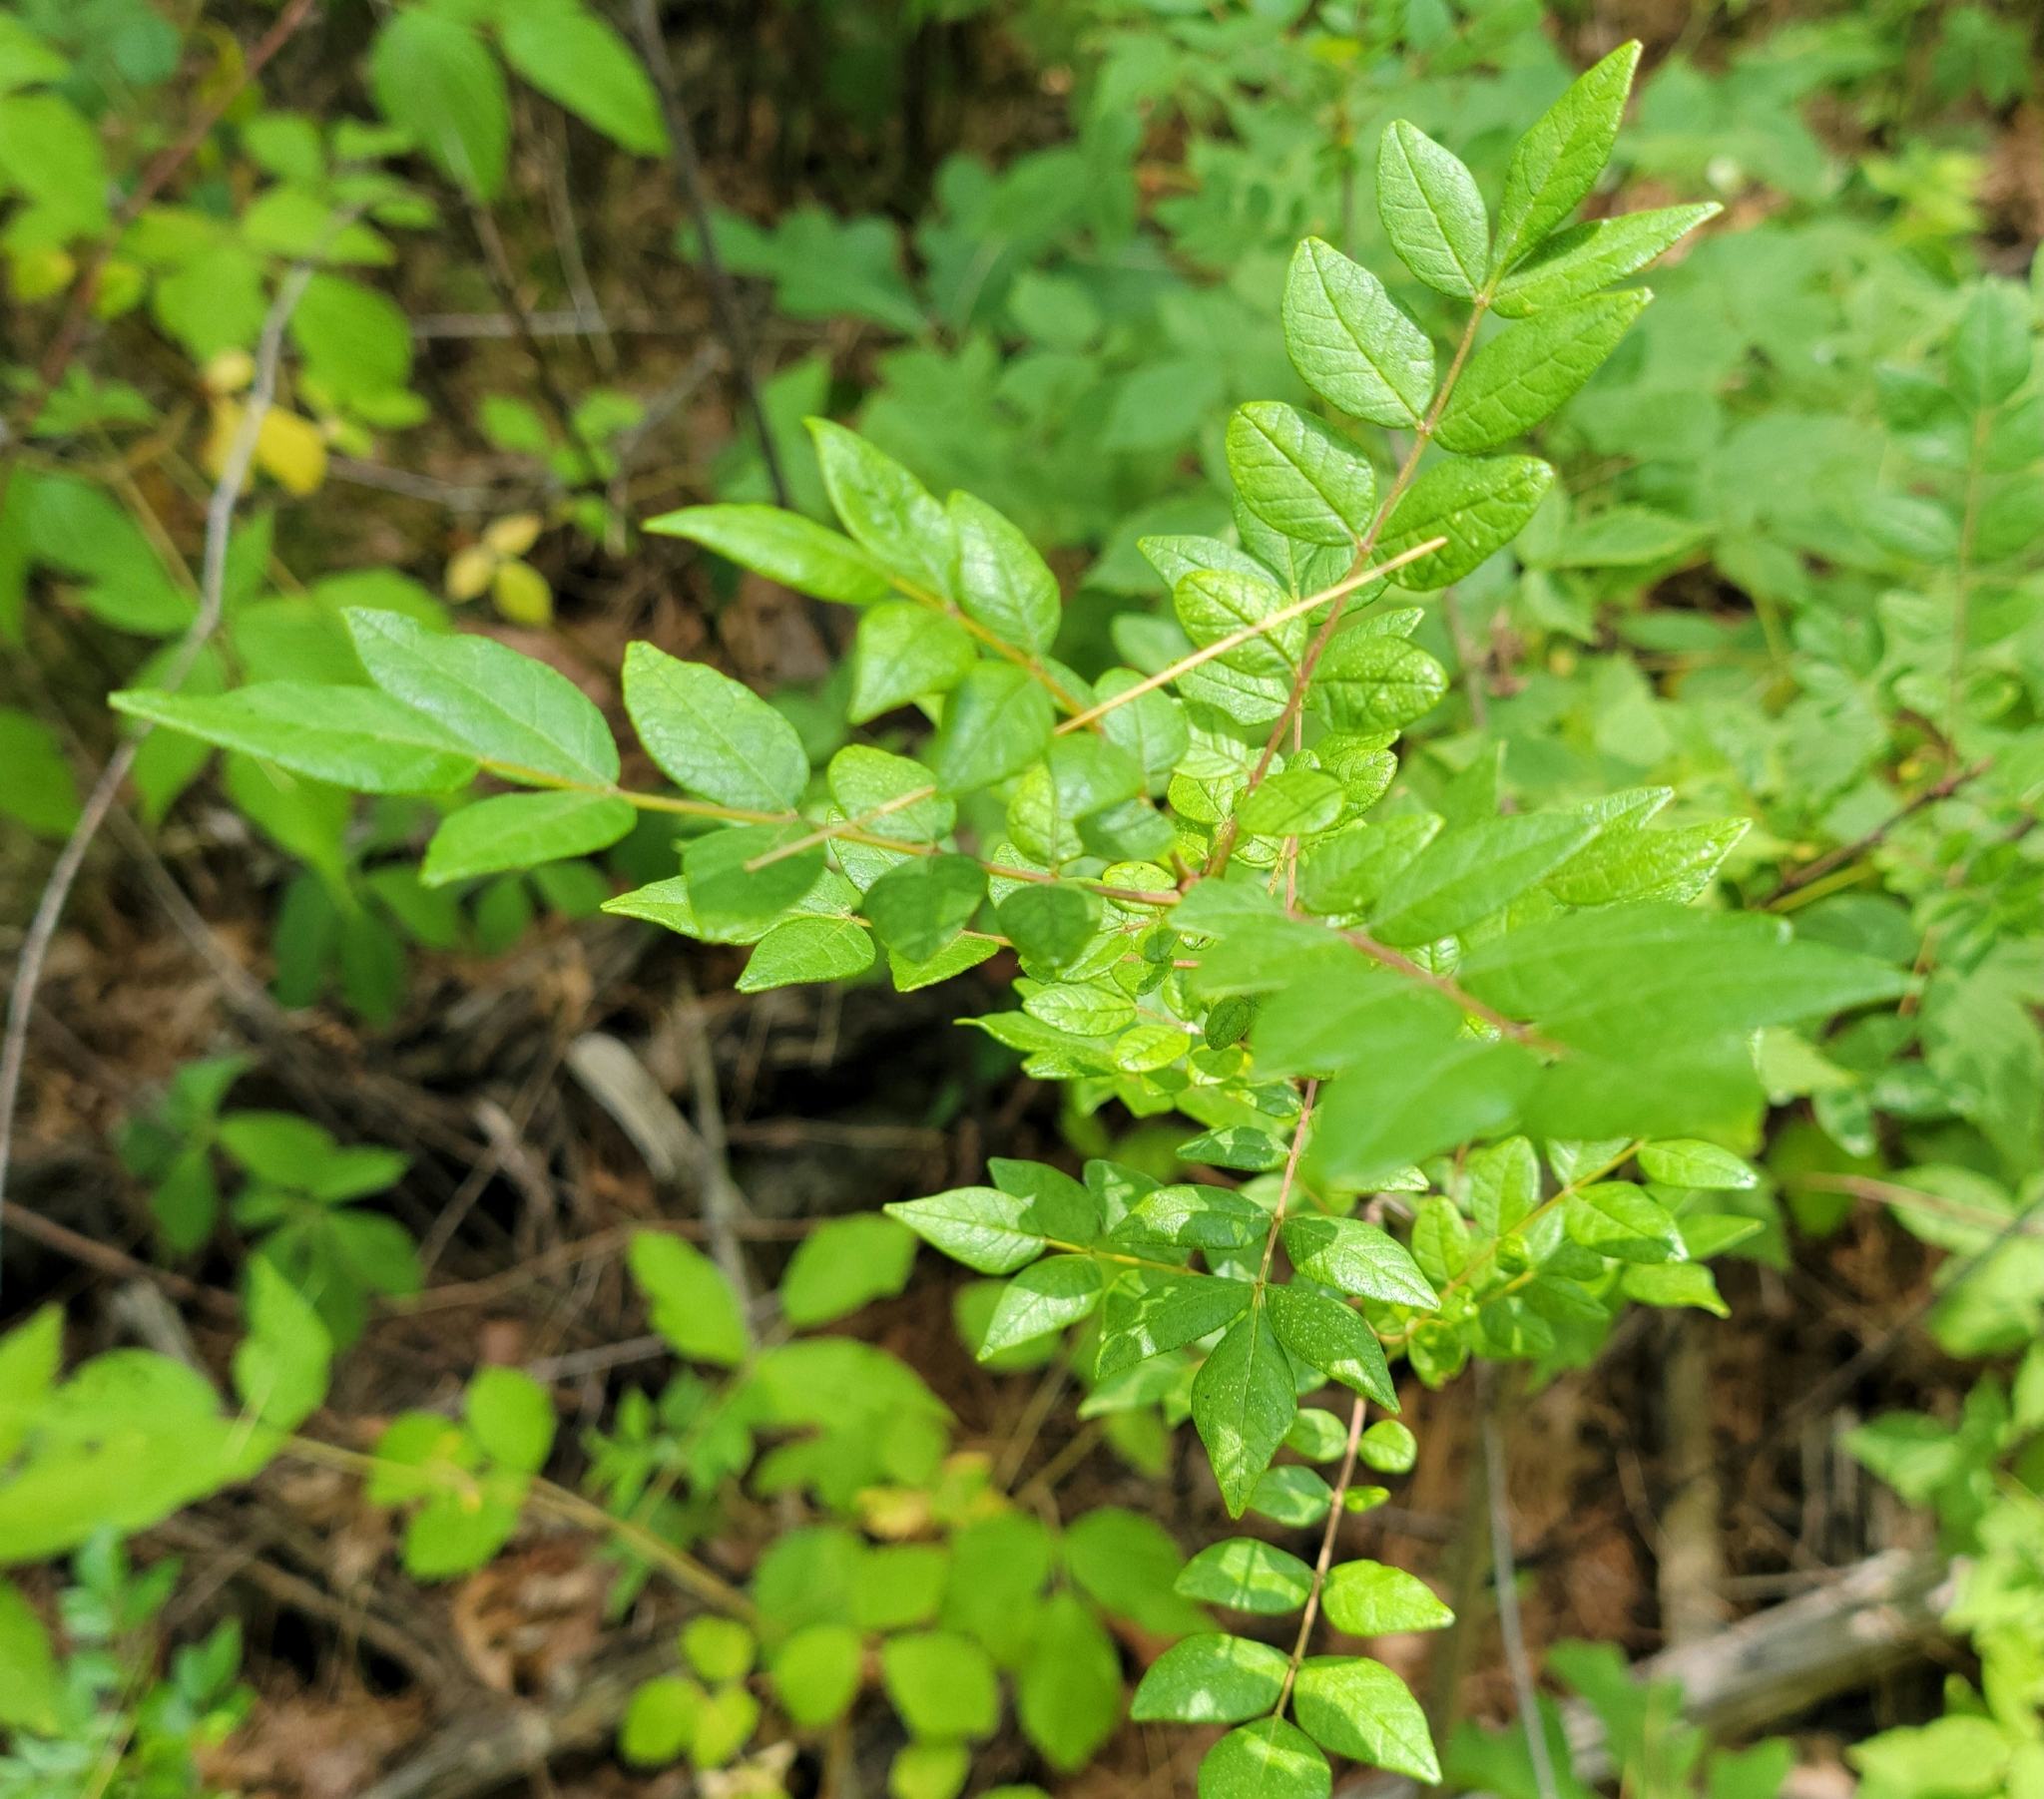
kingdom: Plantae
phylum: Tracheophyta
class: Magnoliopsida
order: Sapindales
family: Rutaceae
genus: Zanthoxylum
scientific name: Zanthoxylum americanum
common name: Northern prickly-ash
